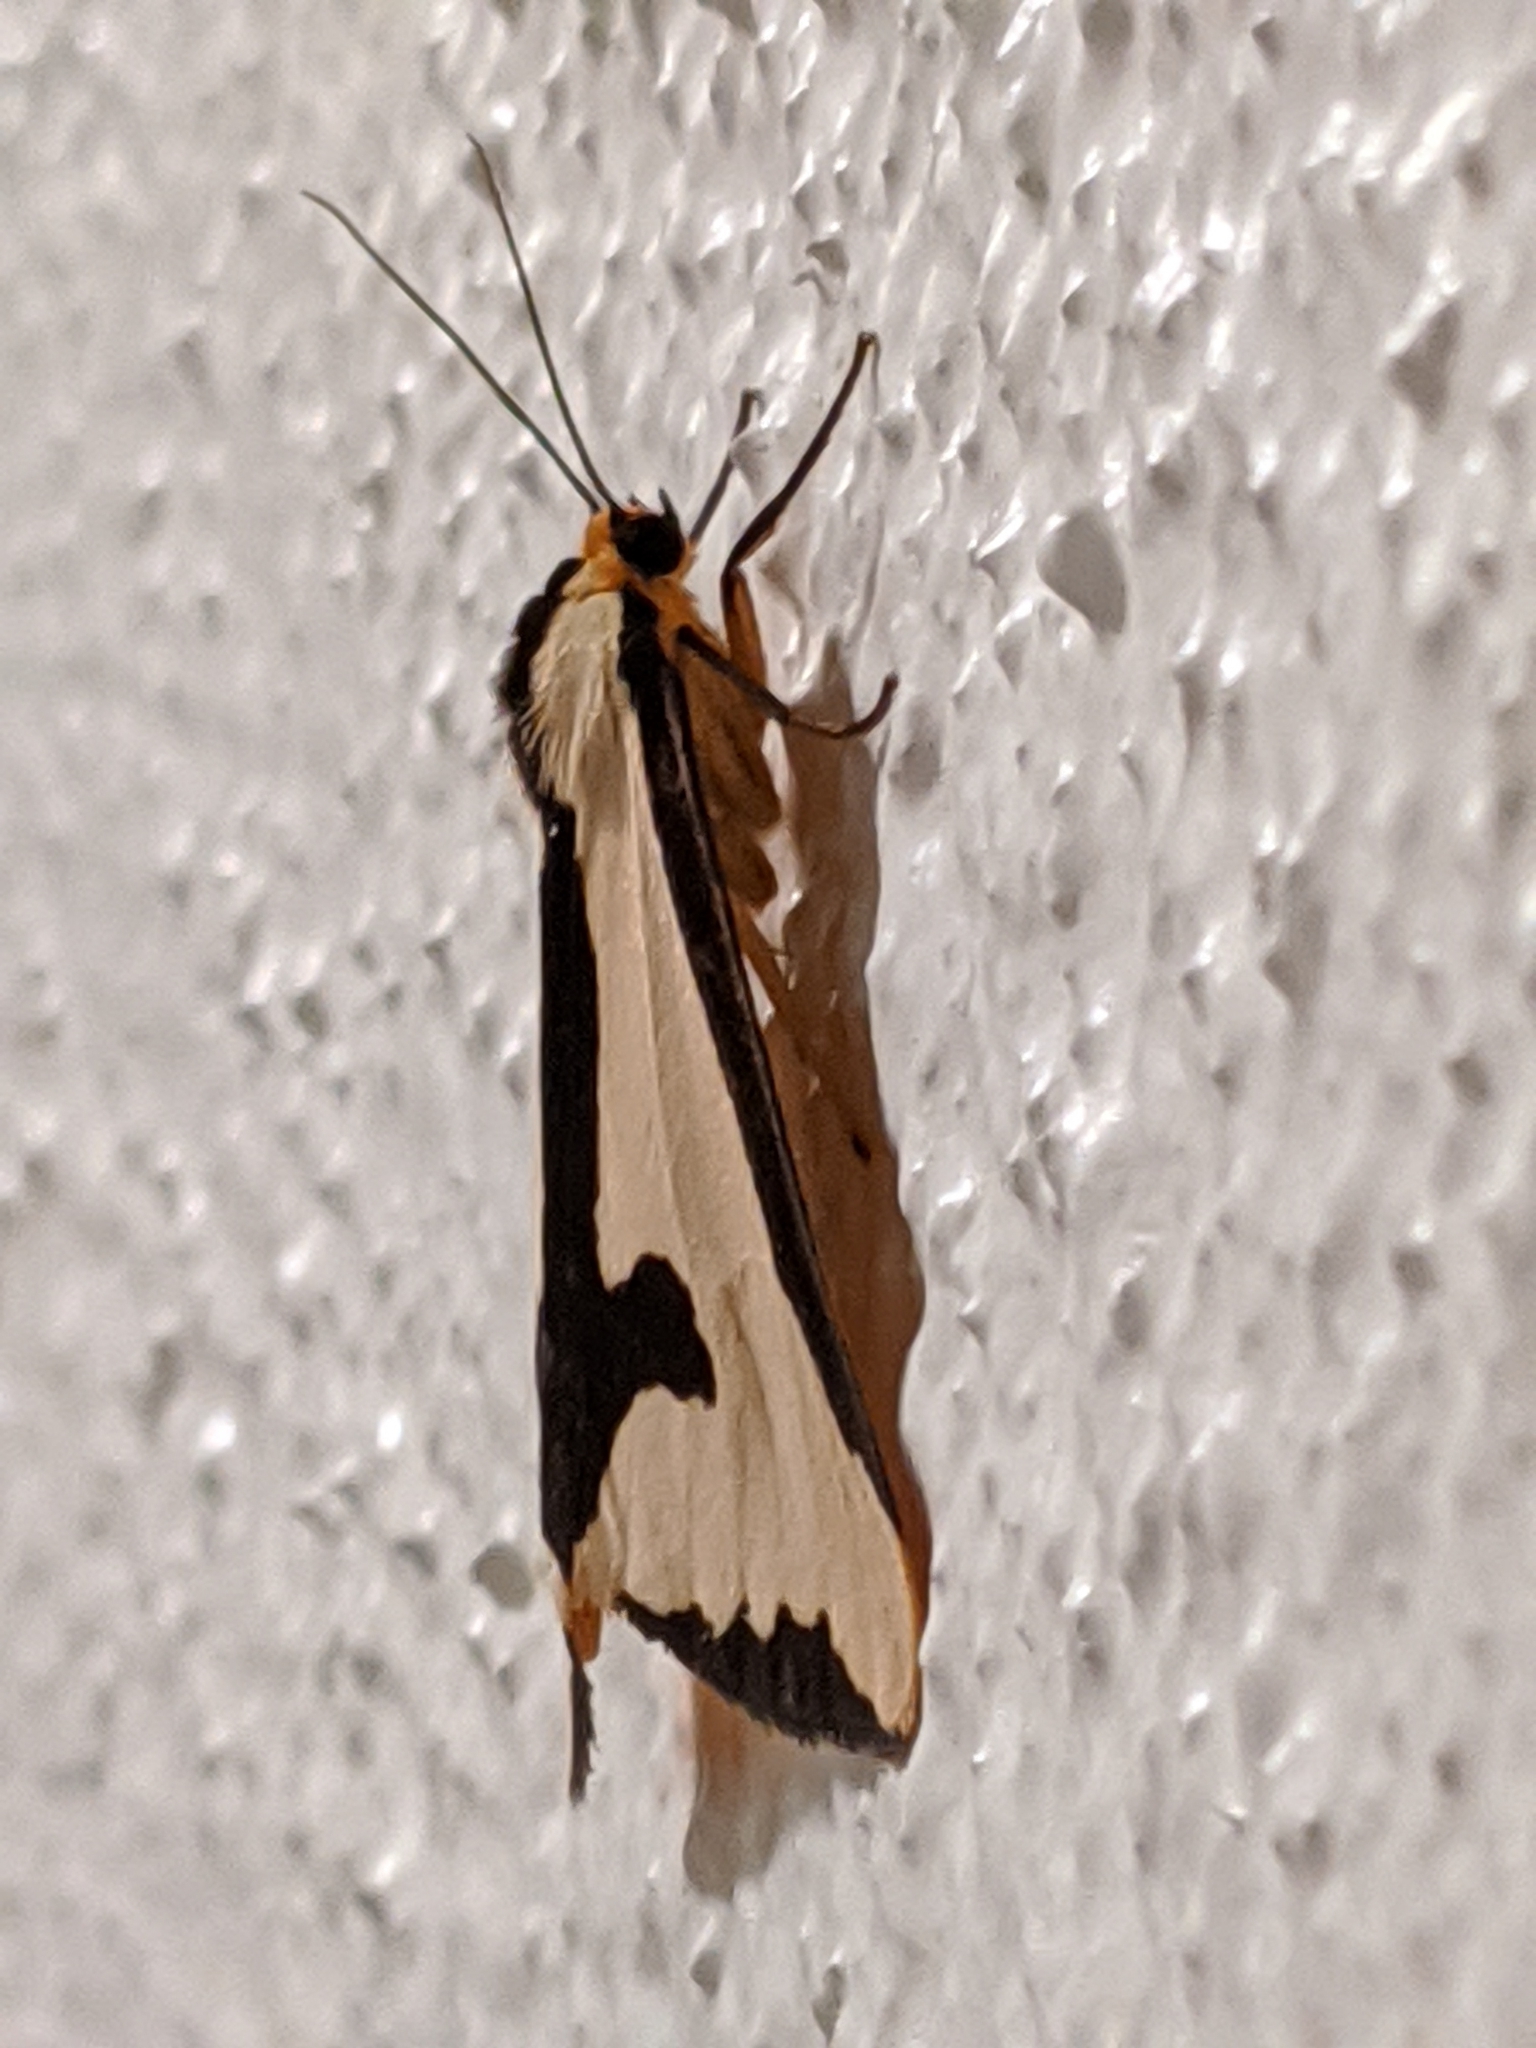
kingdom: Animalia
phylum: Arthropoda
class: Insecta
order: Lepidoptera
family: Erebidae
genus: Haploa
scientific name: Haploa clymene
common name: Clymene moth
